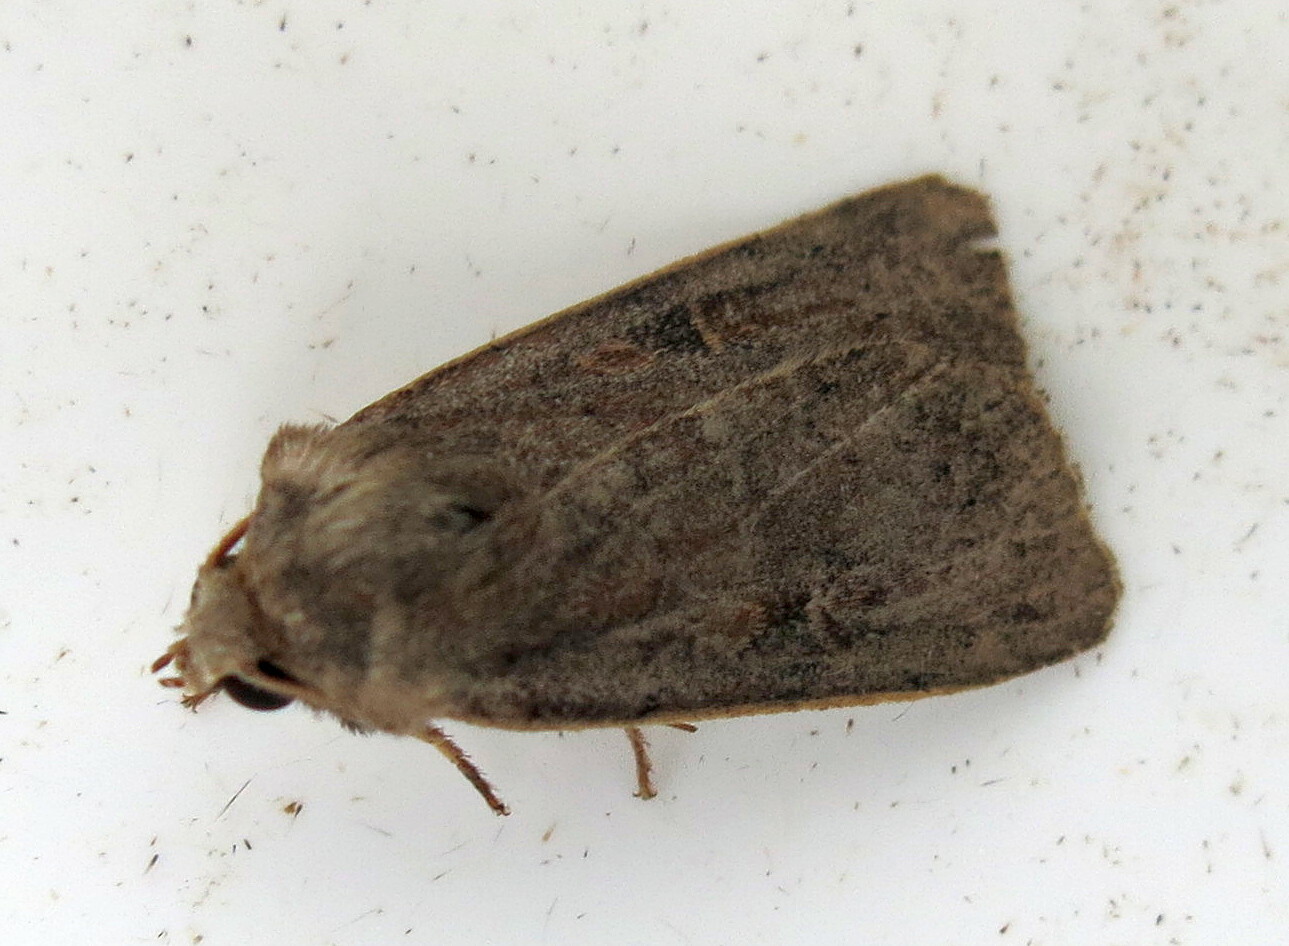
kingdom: Animalia
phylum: Arthropoda
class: Insecta
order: Lepidoptera
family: Noctuidae
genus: Xestia
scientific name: Xestia xanthographa
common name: Square-spot rustic
